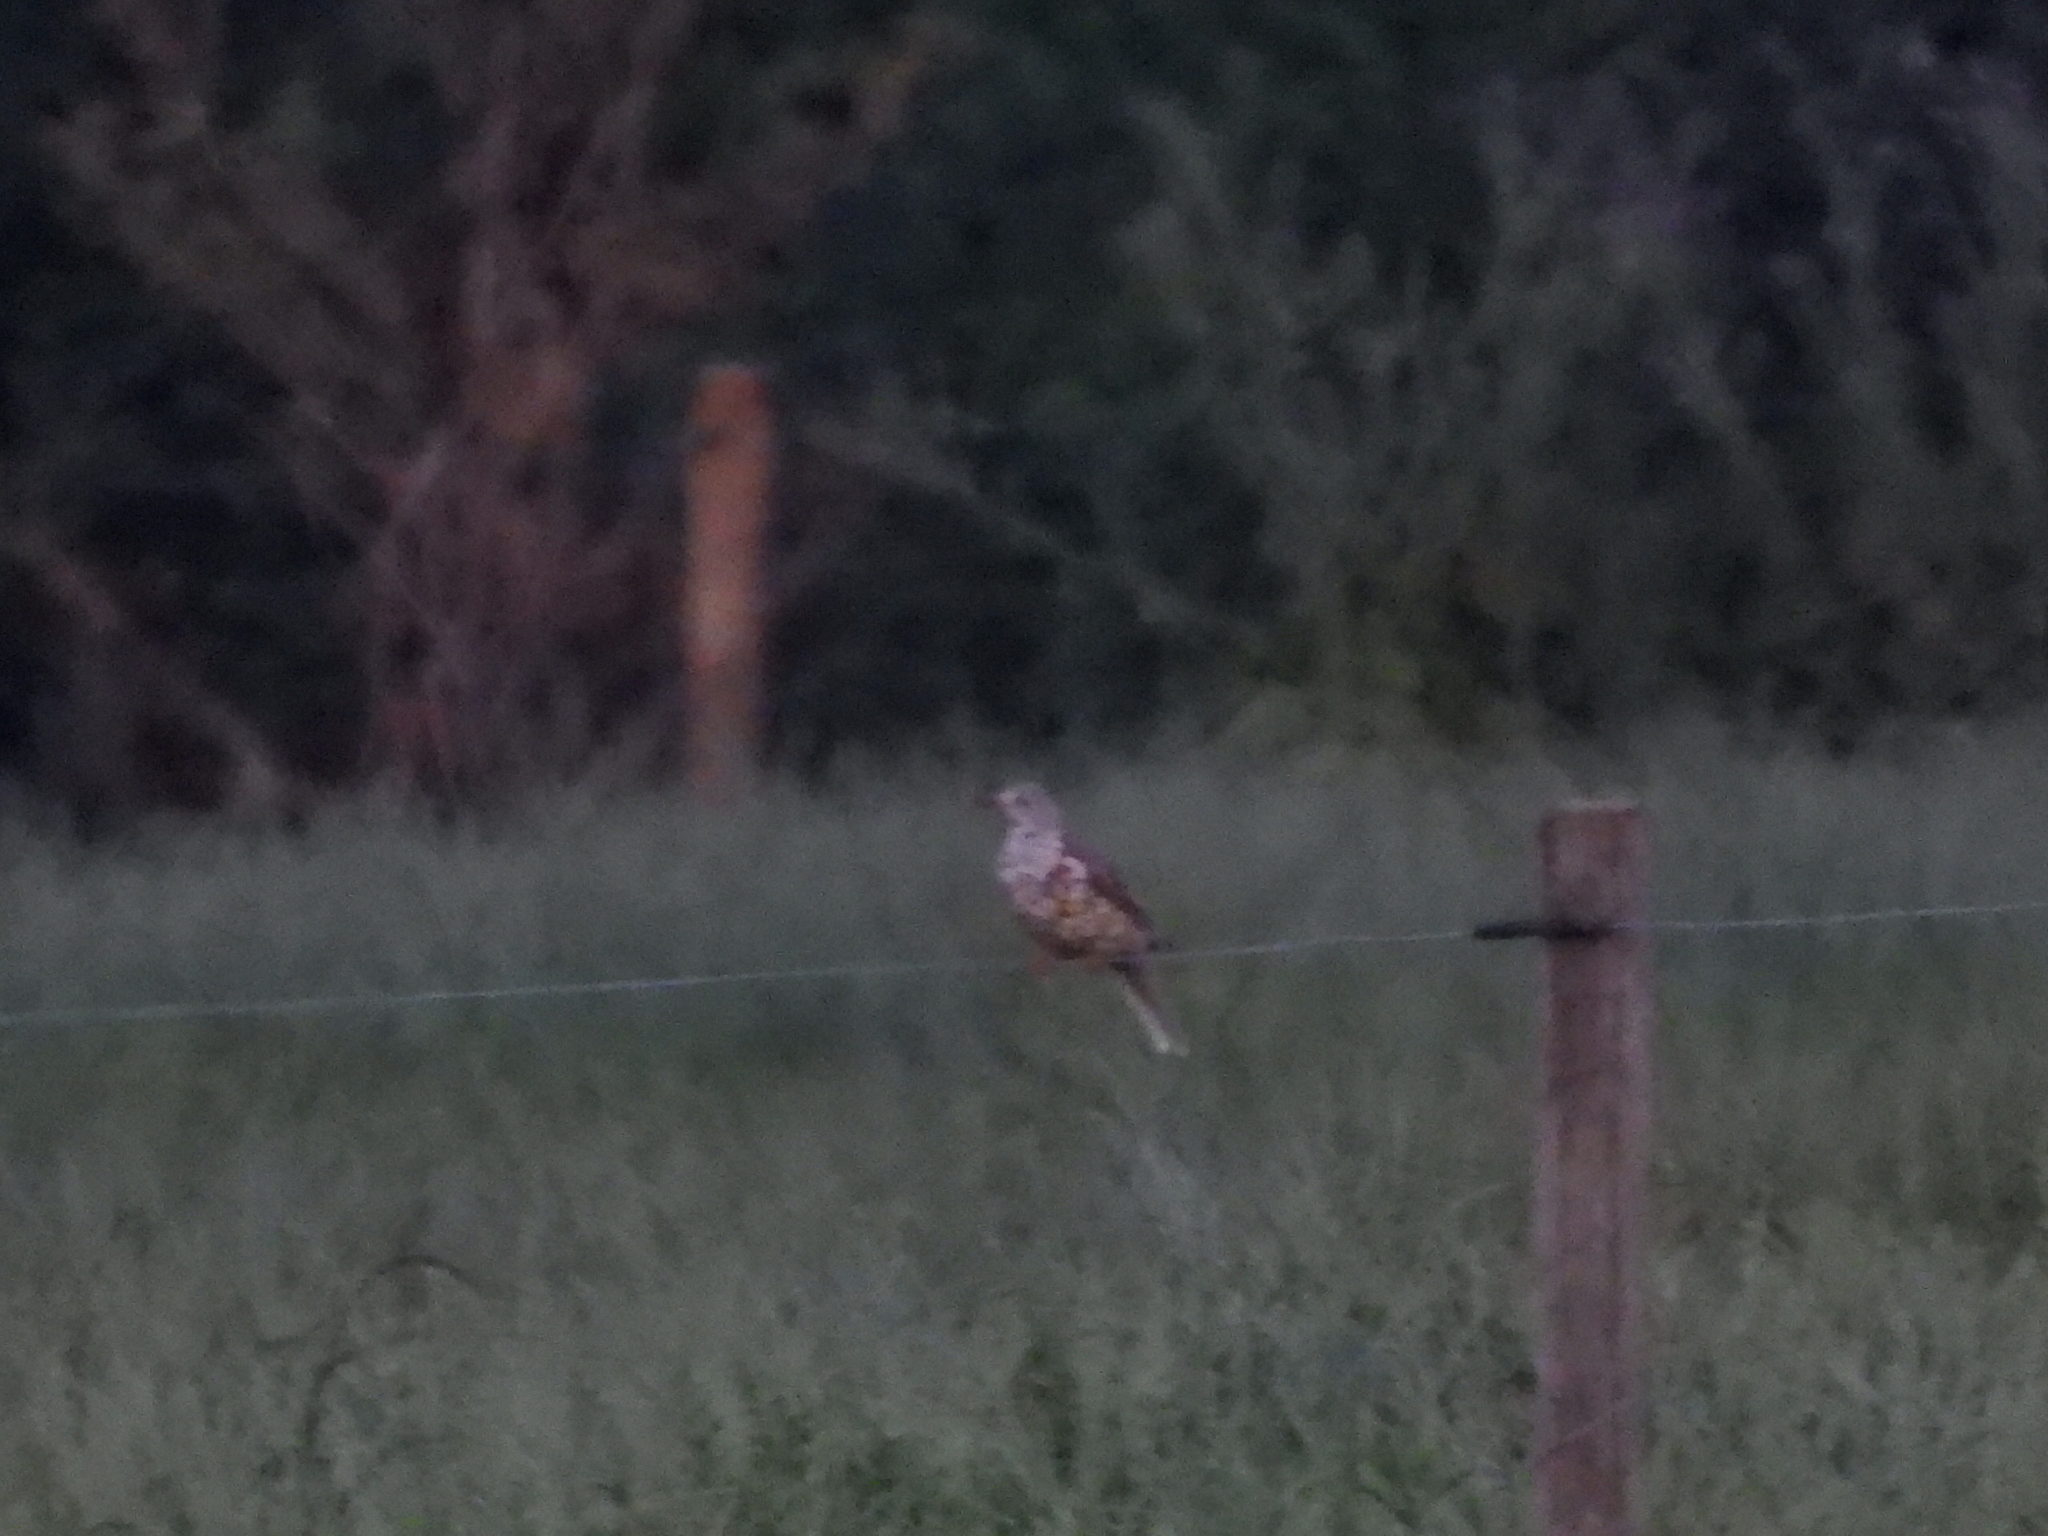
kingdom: Animalia
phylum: Chordata
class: Aves
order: Passeriformes
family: Turdidae
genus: Turdus
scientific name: Turdus viscivorus
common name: Mistle thrush
